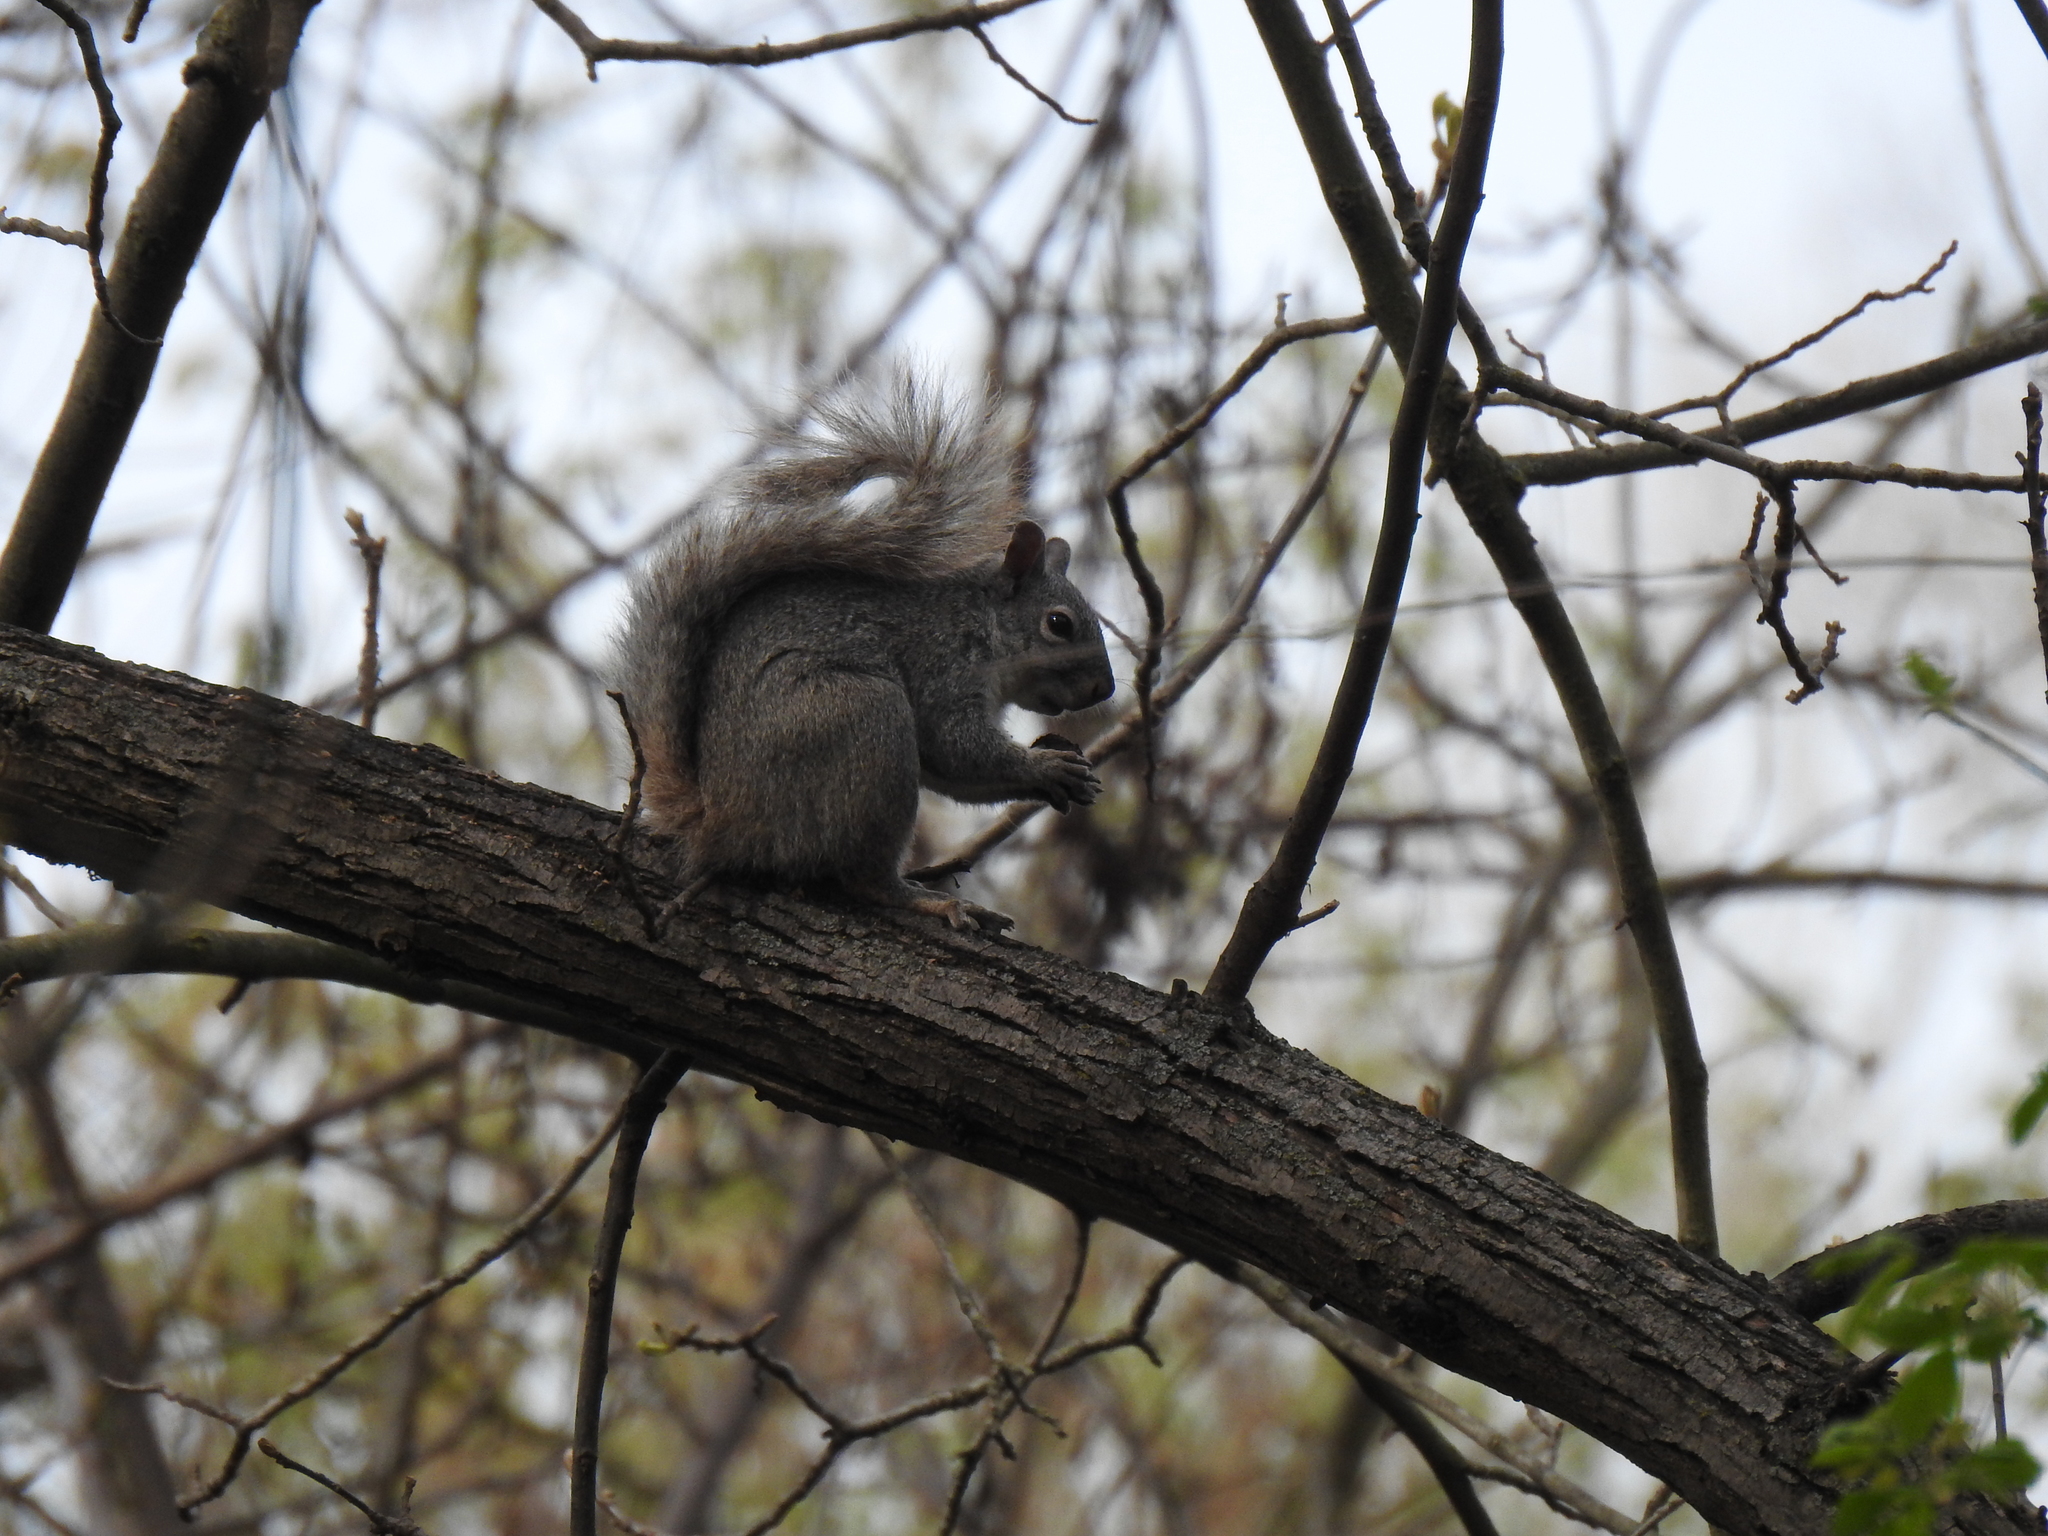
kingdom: Animalia
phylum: Chordata
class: Mammalia
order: Rodentia
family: Sciuridae
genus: Sciurus
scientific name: Sciurus griseus
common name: Western gray squirrel
